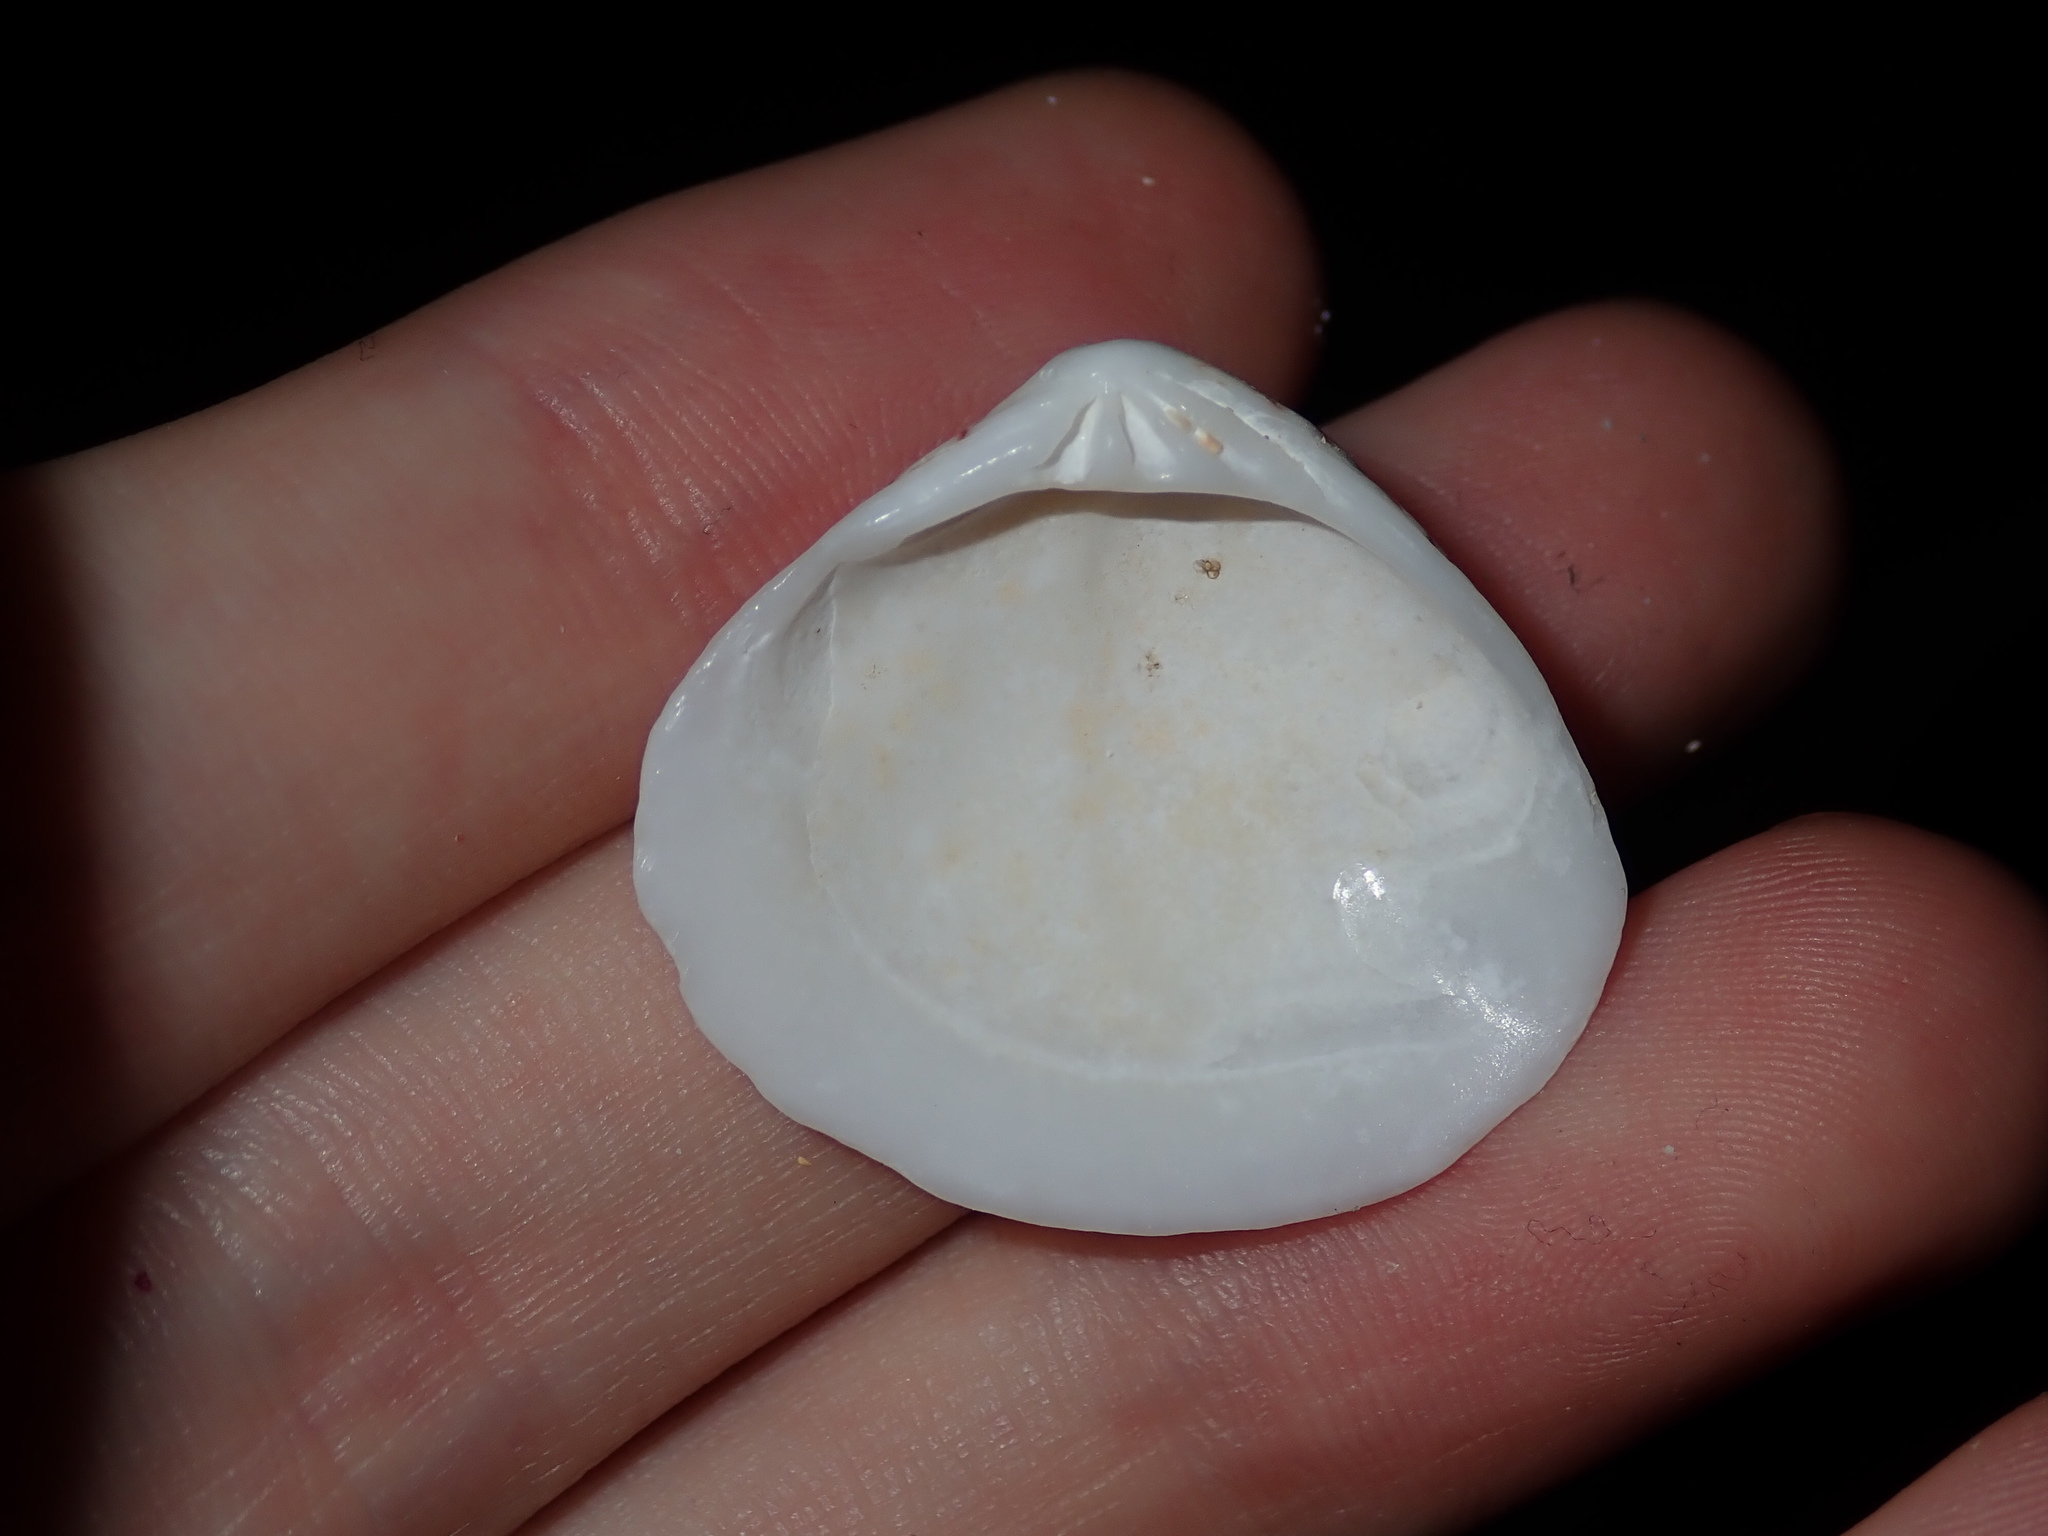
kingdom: Animalia
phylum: Mollusca
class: Bivalvia
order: Venerida
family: Veneridae
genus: Gomphina
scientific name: Gomphina undulosa
